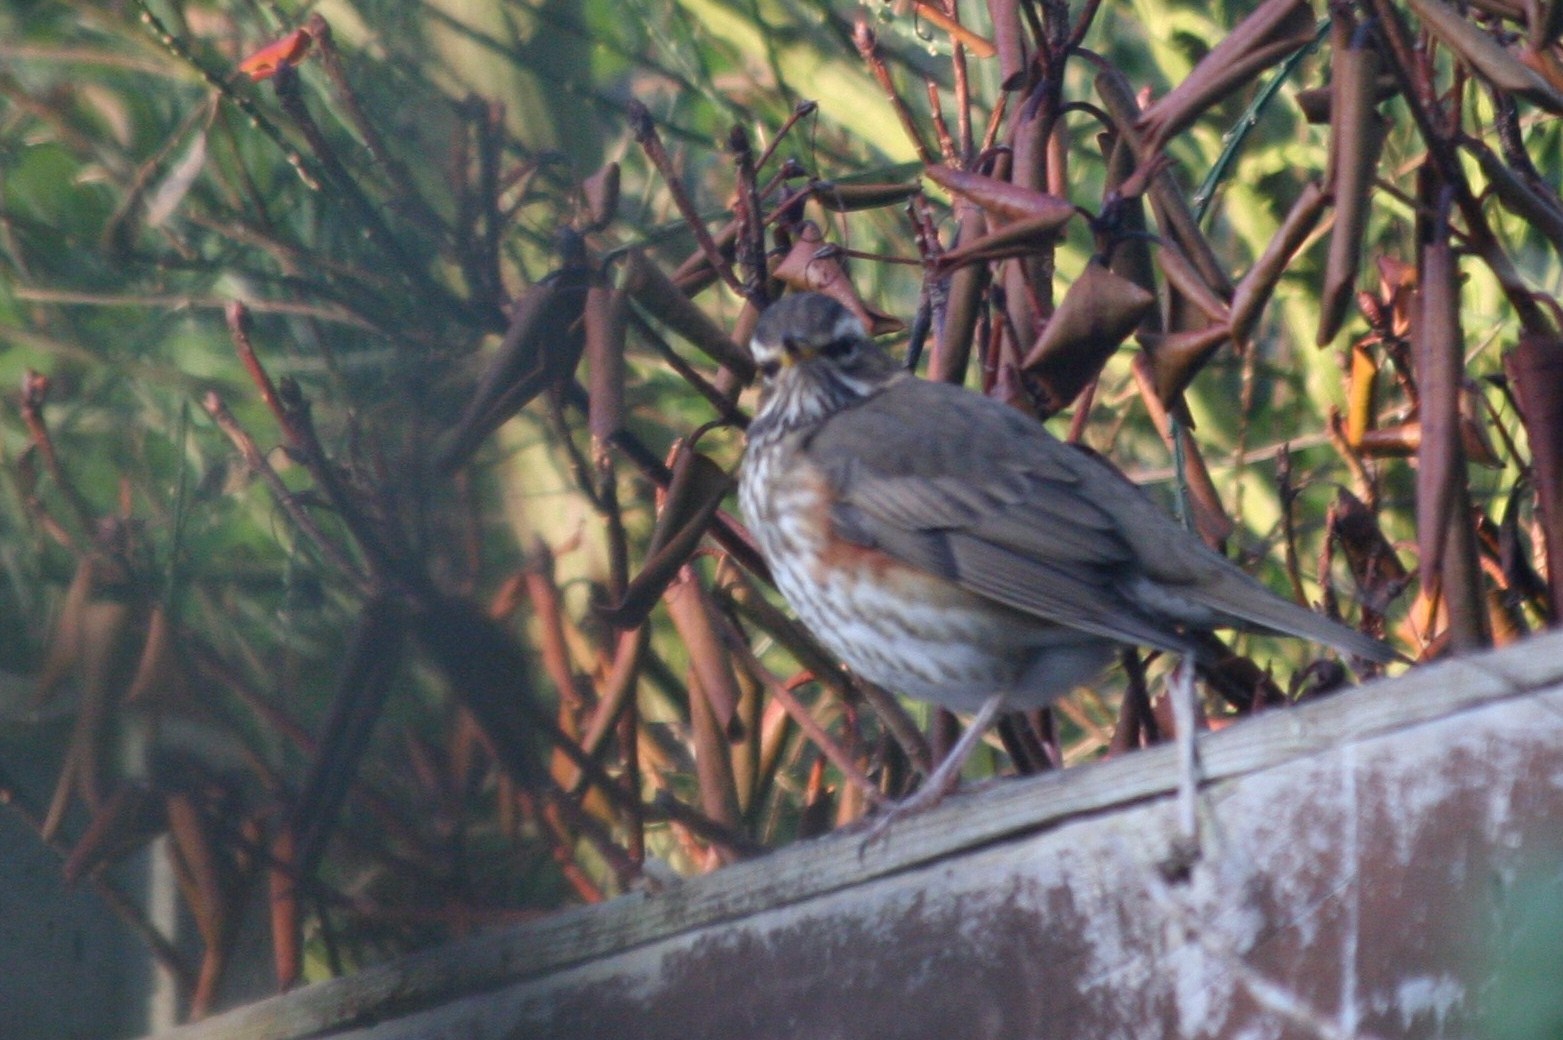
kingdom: Animalia
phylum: Chordata
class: Aves
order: Passeriformes
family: Turdidae
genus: Turdus
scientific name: Turdus iliacus
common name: Redwing
